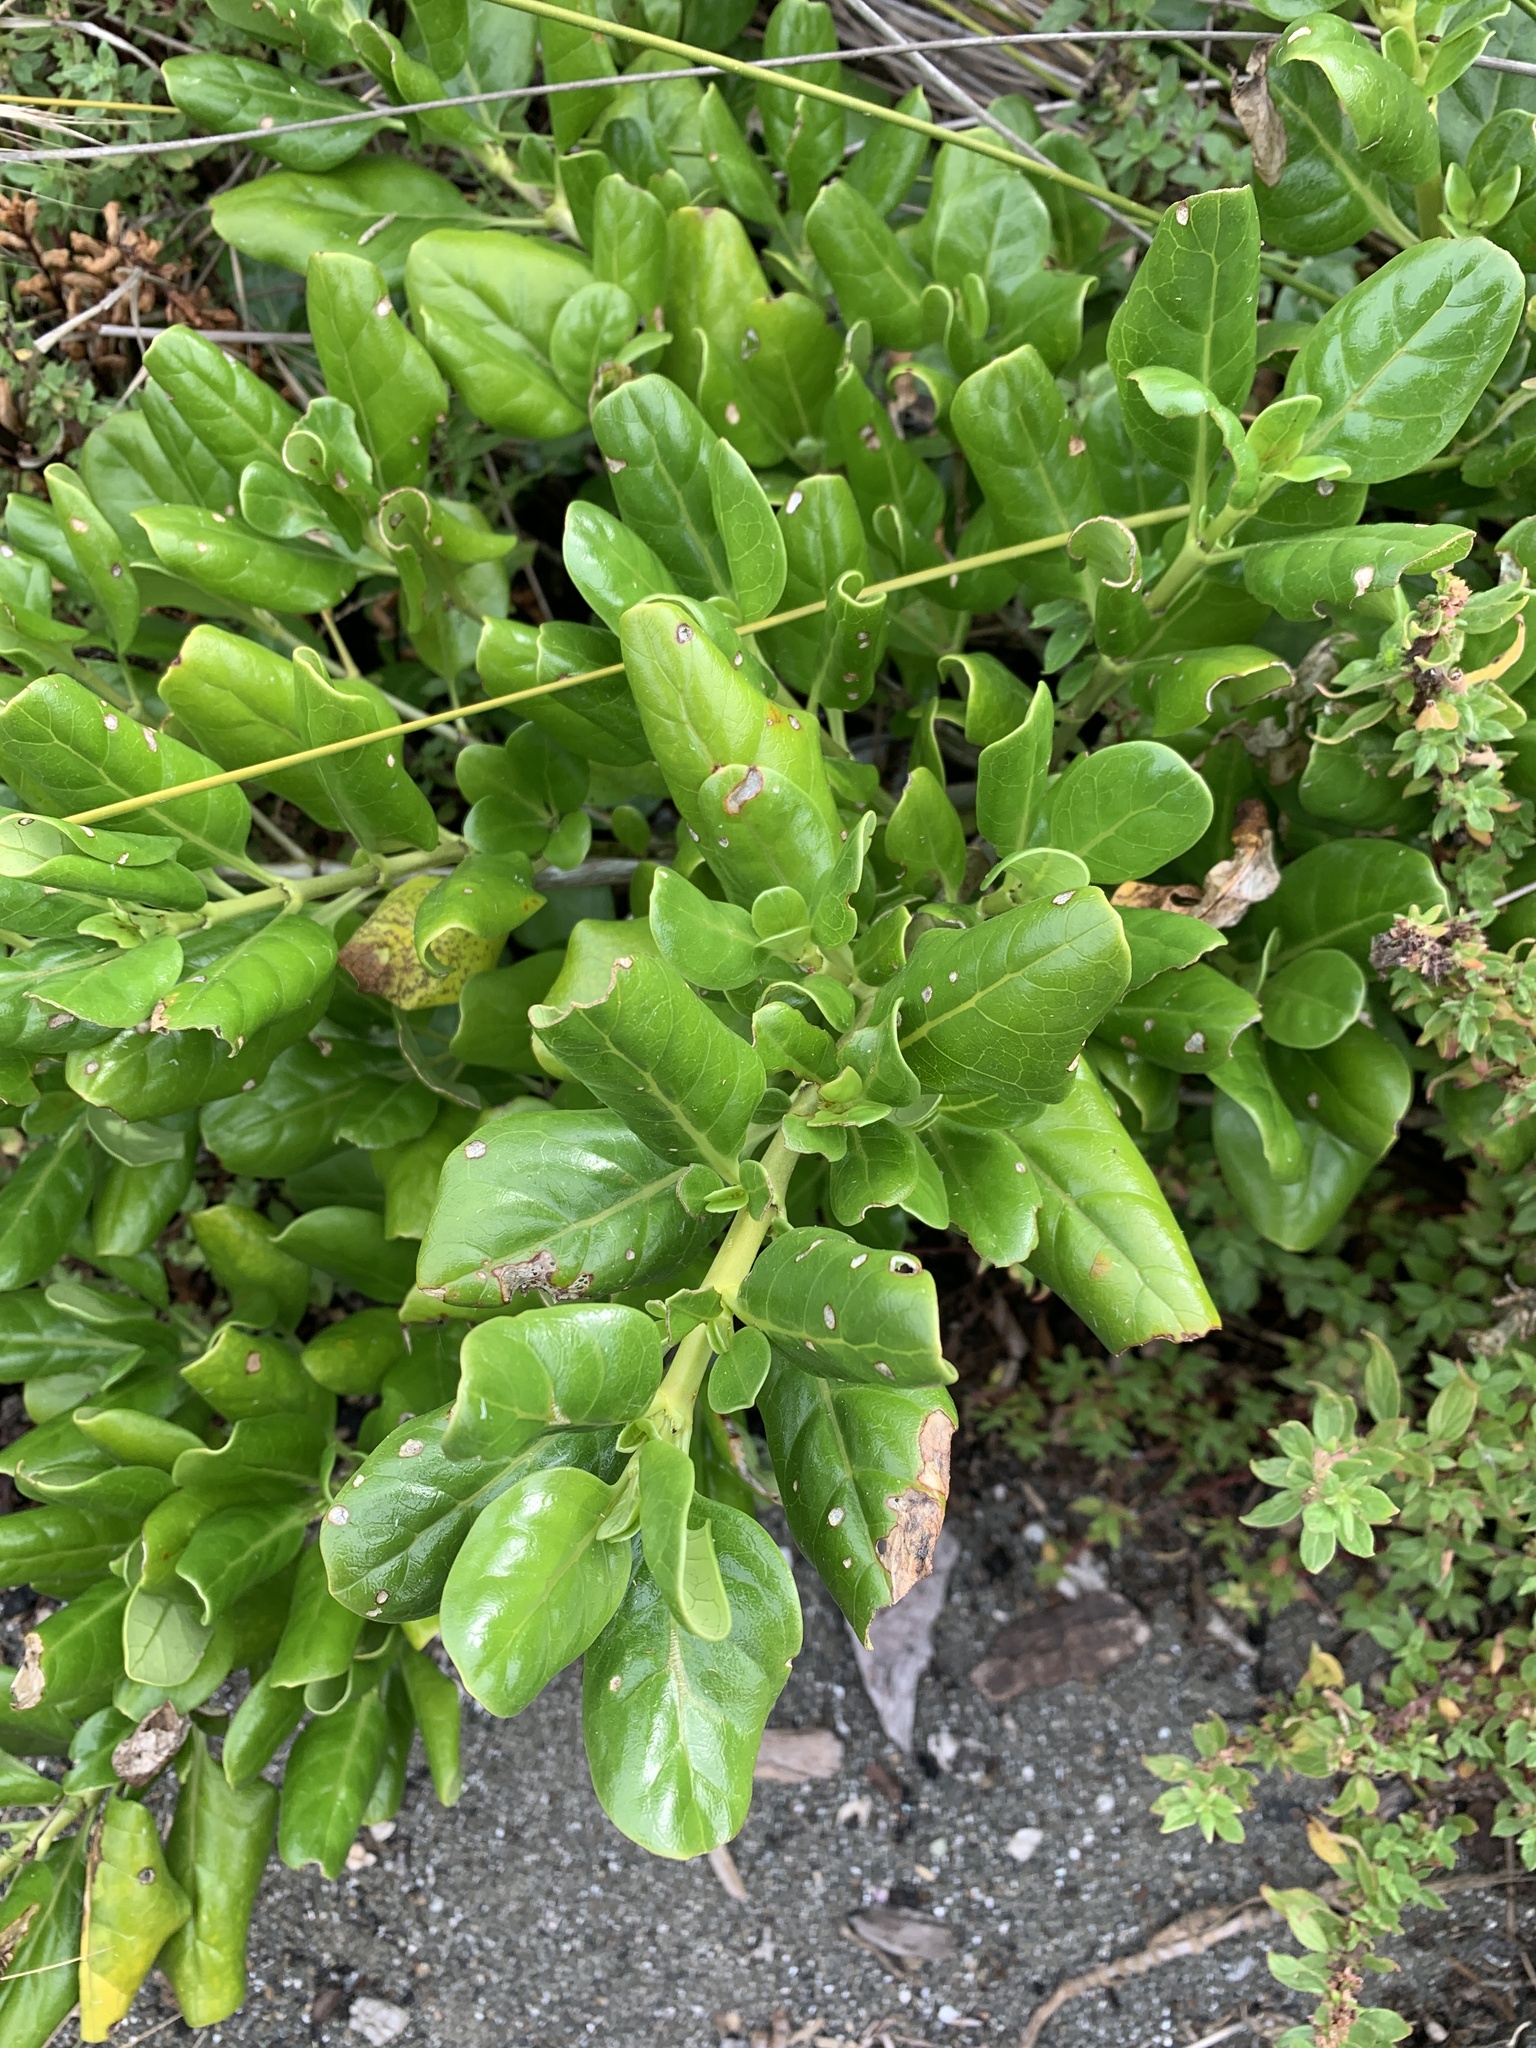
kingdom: Plantae
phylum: Tracheophyta
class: Magnoliopsida
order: Gentianales
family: Rubiaceae
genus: Coprosma
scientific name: Coprosma repens
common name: Tree bedstraw
